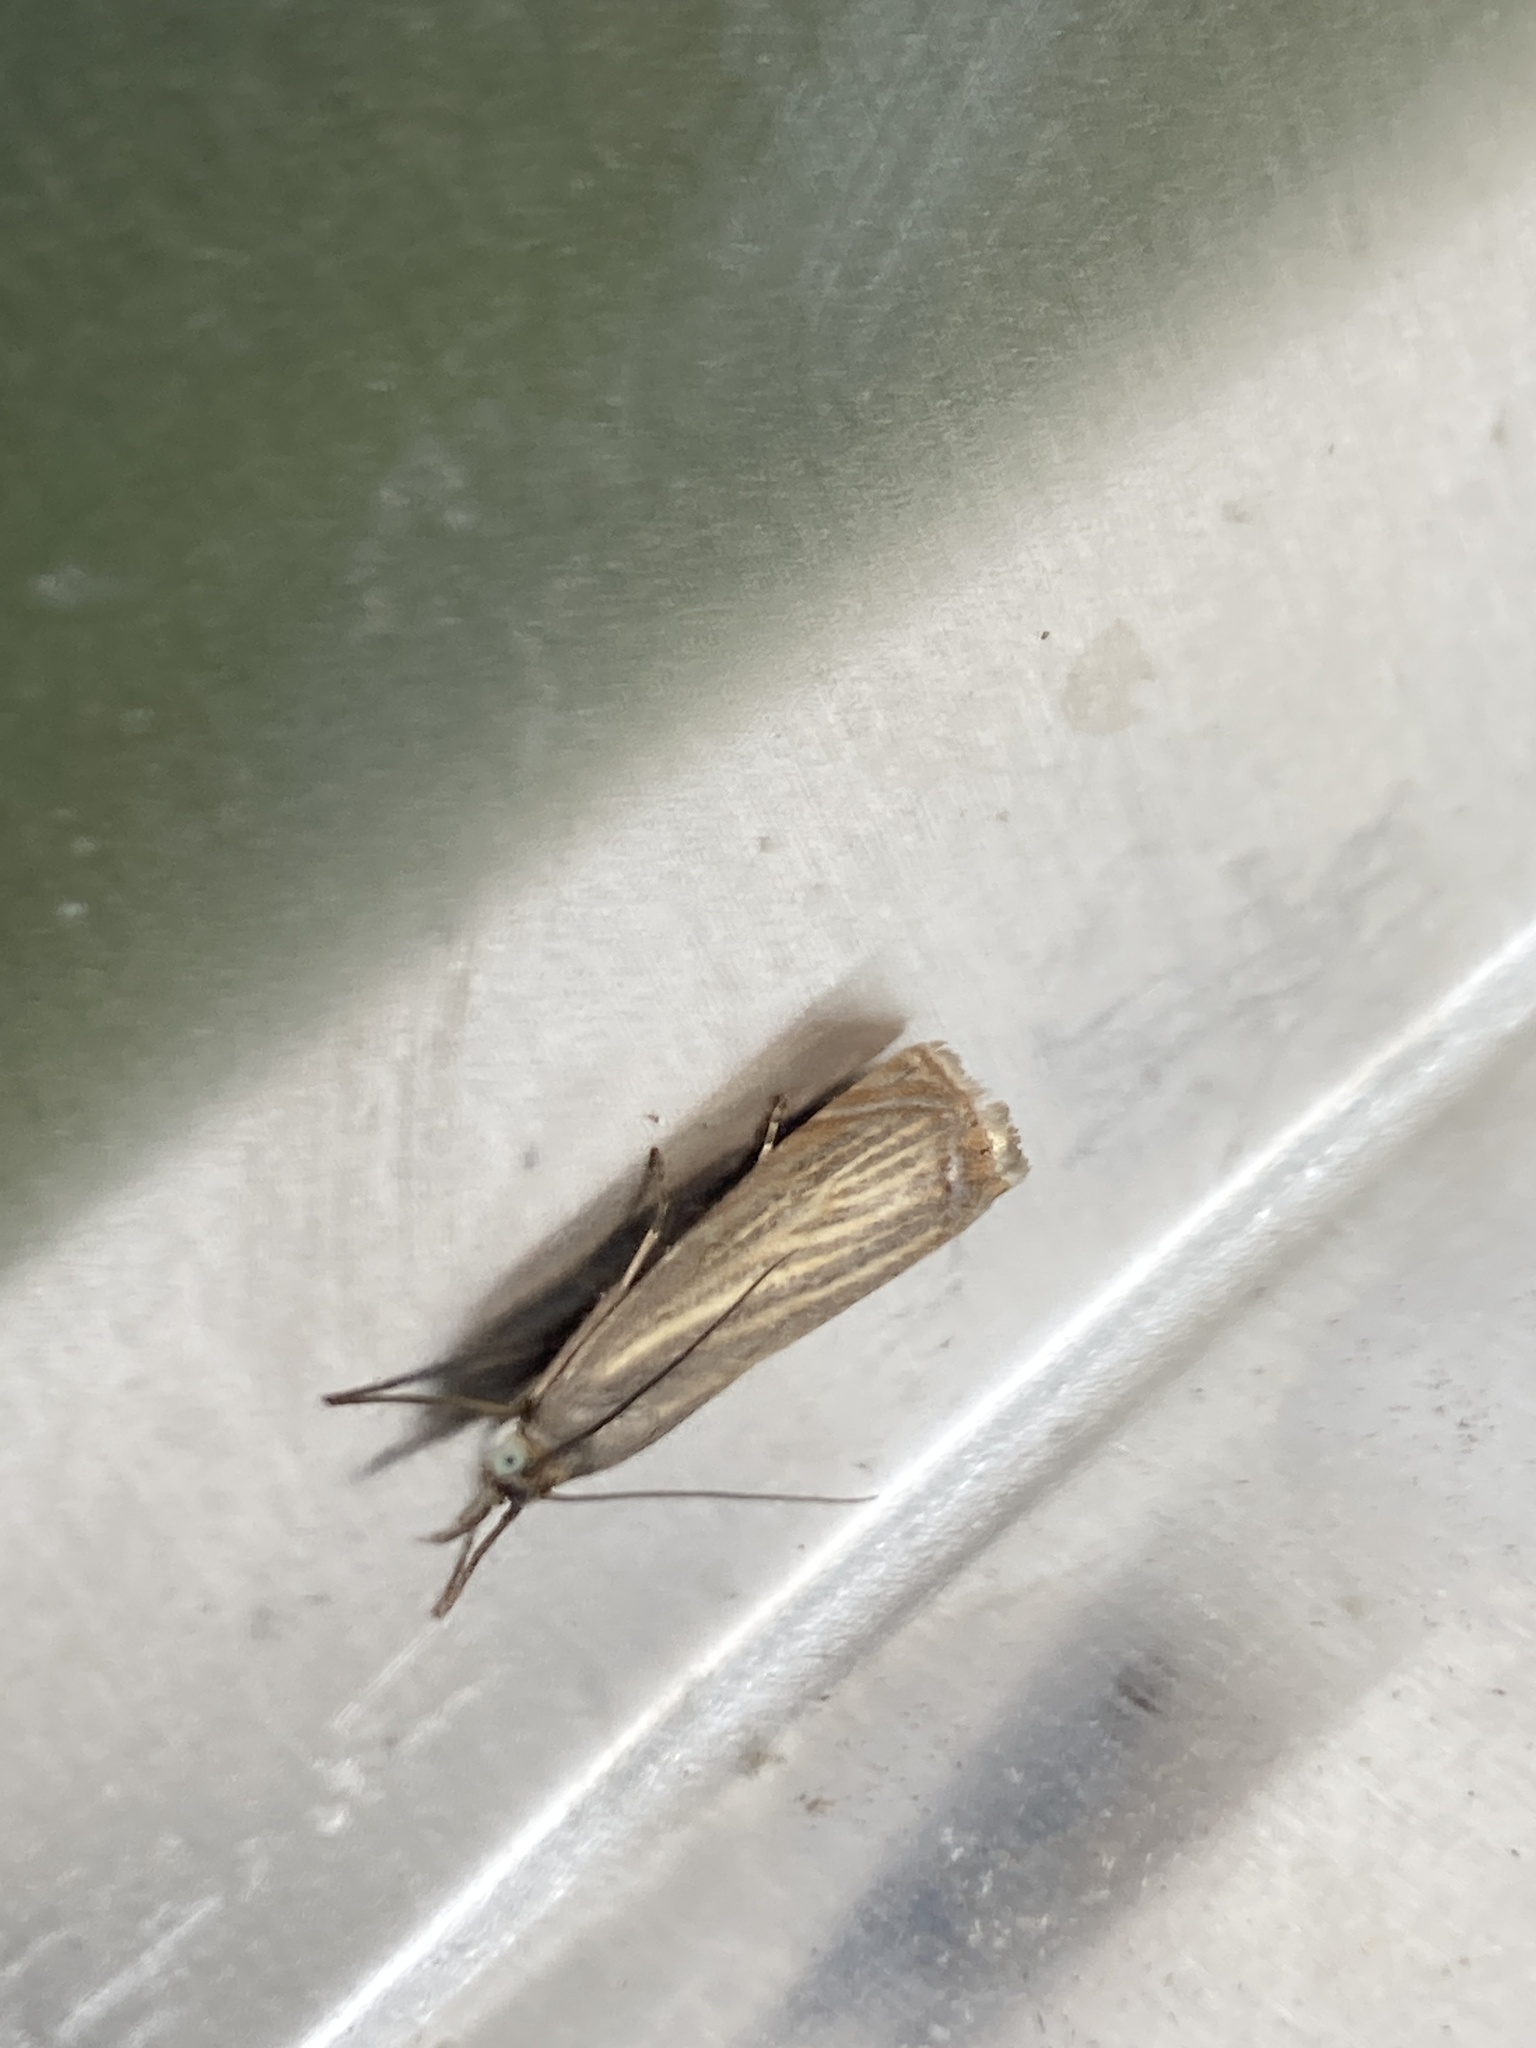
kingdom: Animalia
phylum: Arthropoda
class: Insecta
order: Lepidoptera
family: Crambidae
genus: Chrysoteuchia
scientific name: Chrysoteuchia culmella
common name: Garden grass-veneer
